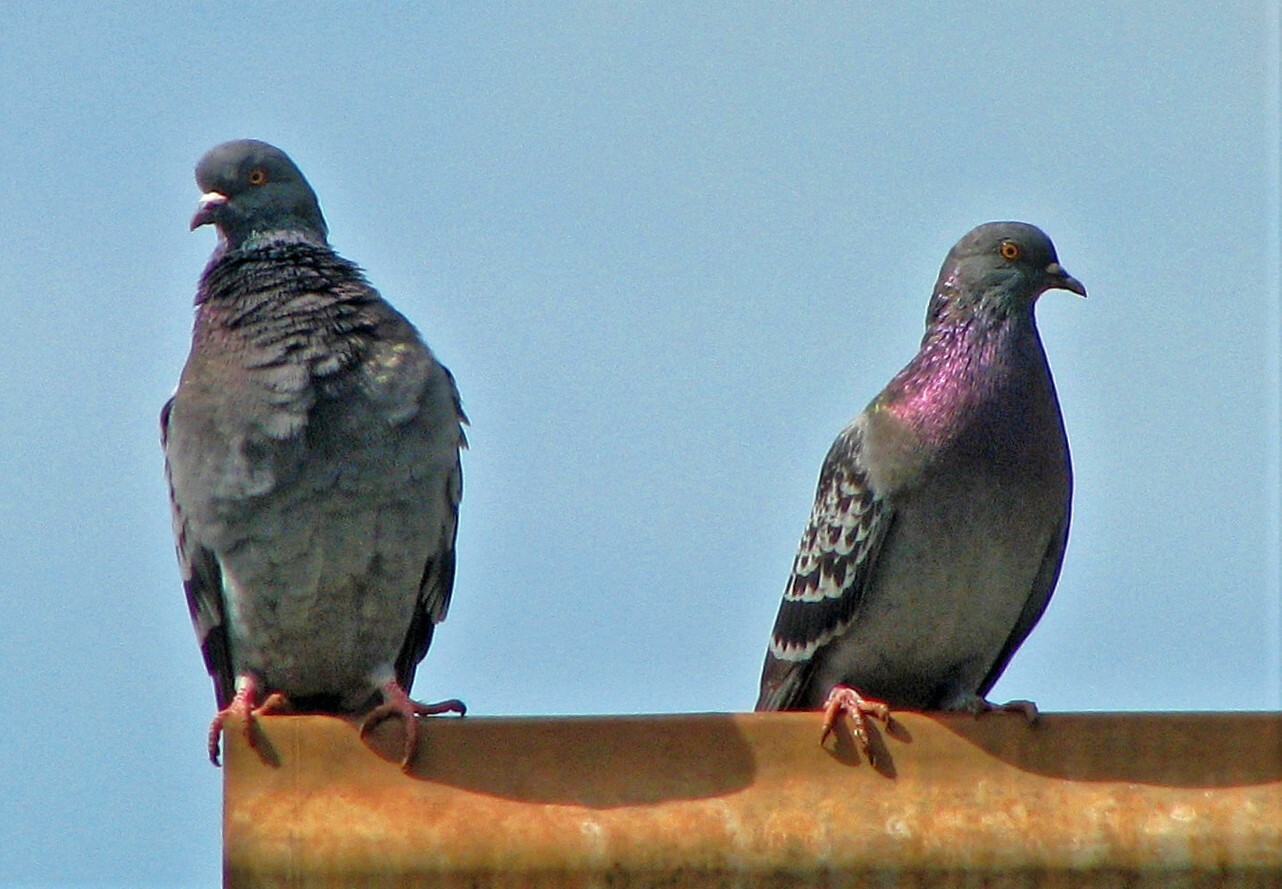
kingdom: Animalia
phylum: Chordata
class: Aves
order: Columbiformes
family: Columbidae
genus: Columba
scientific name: Columba livia
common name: Rock pigeon
